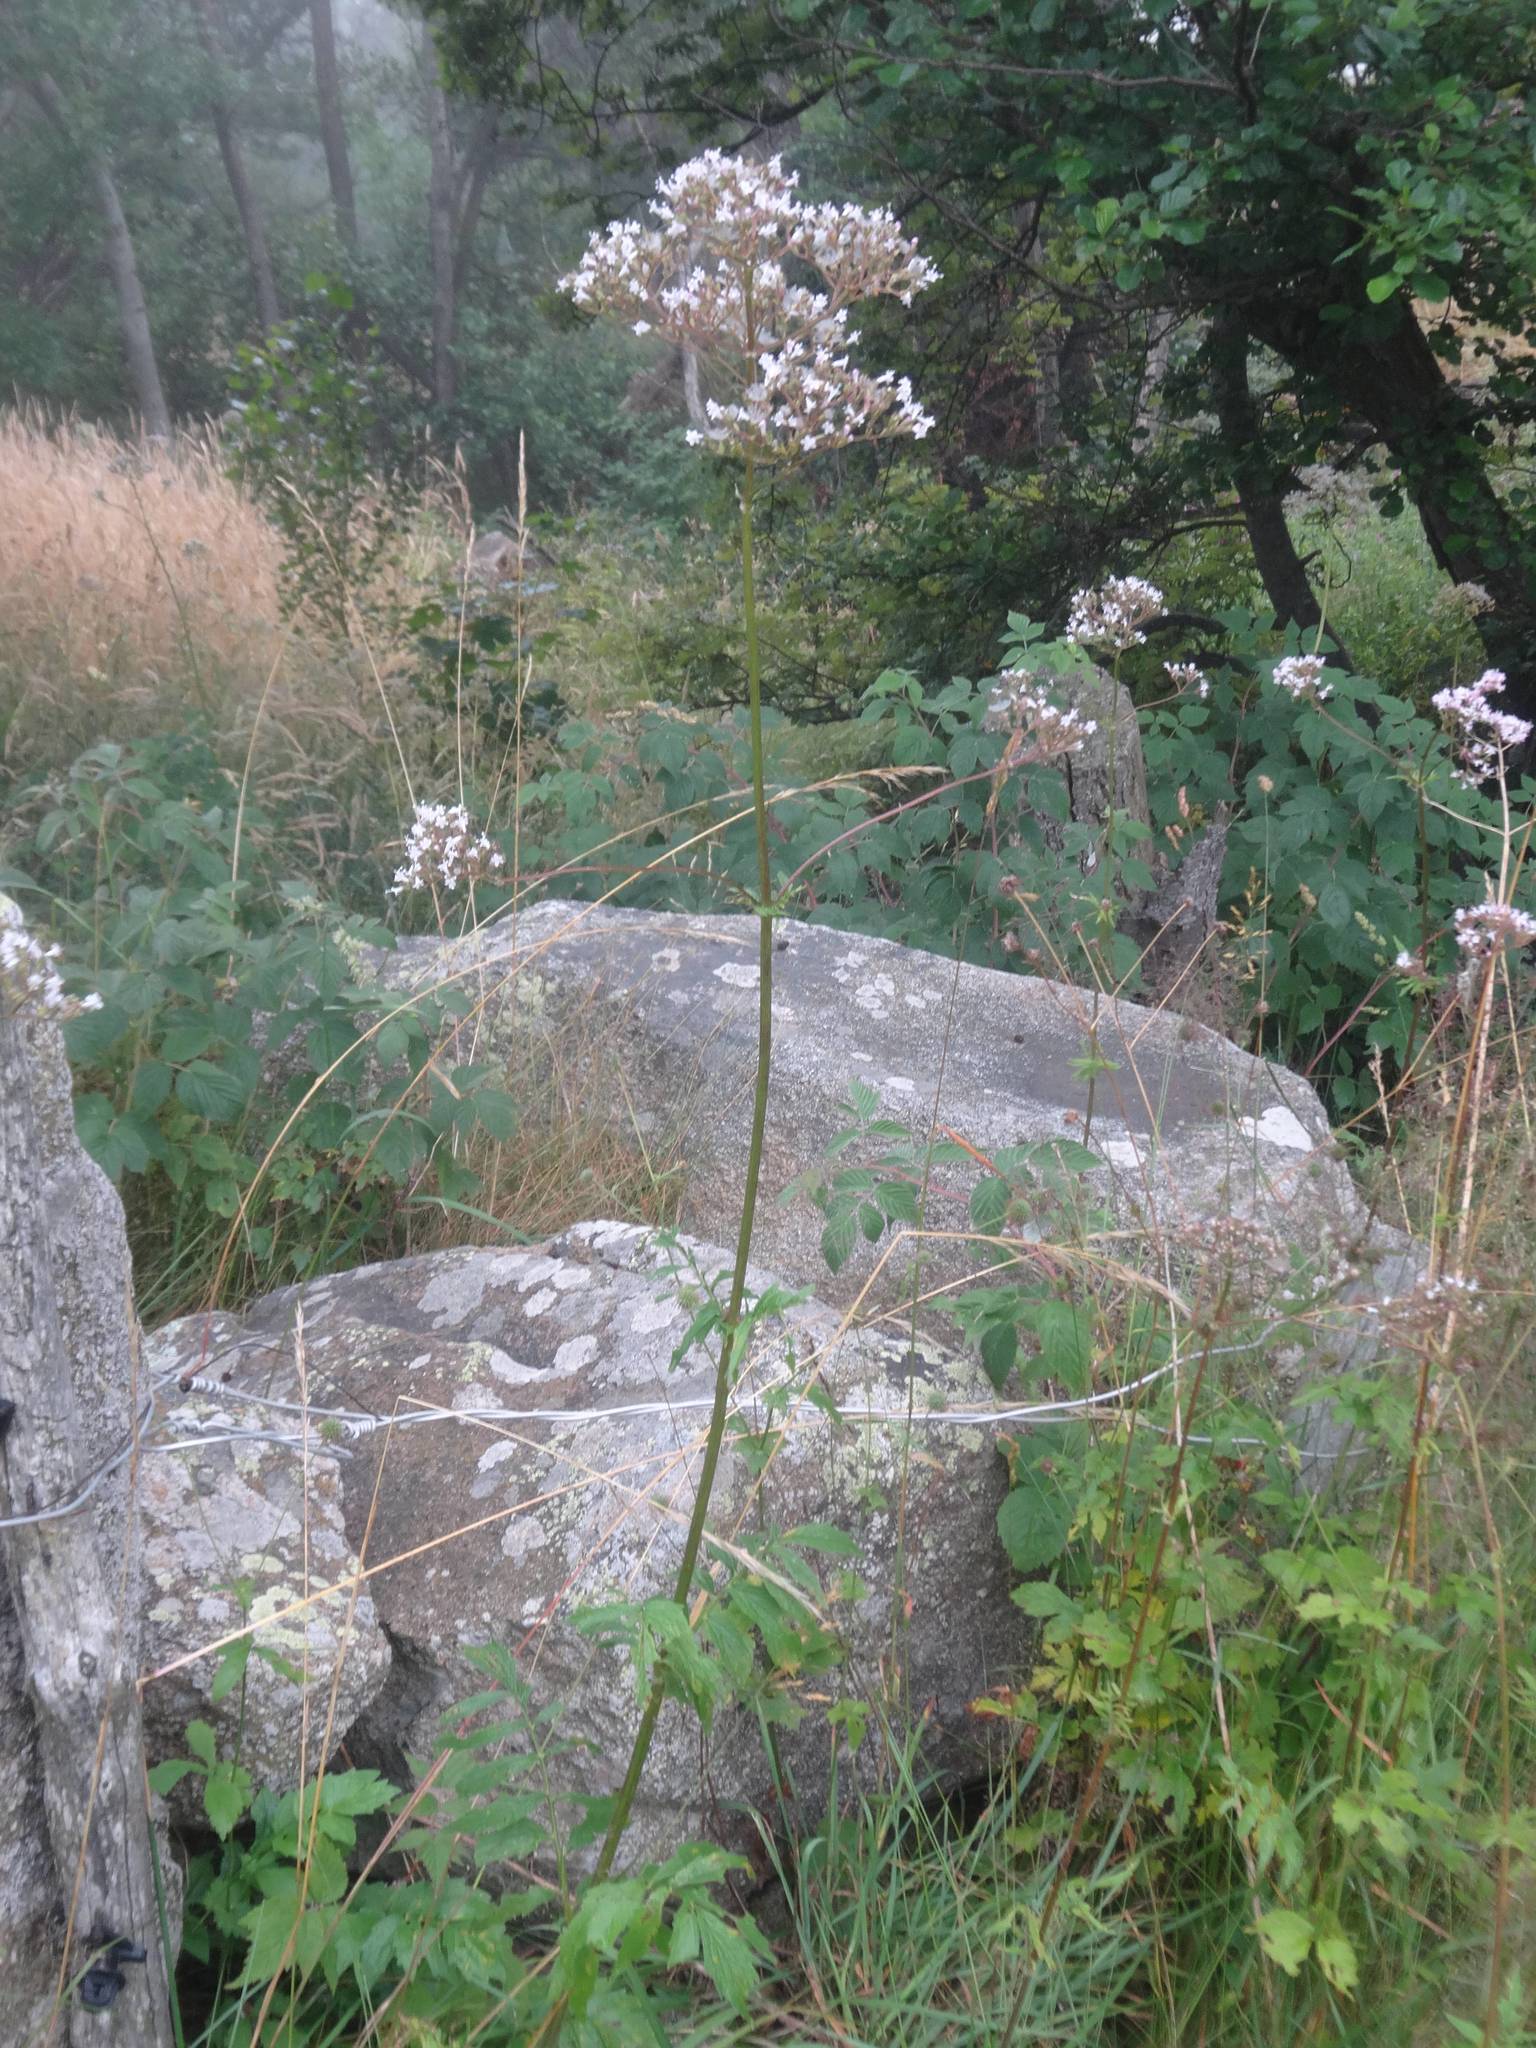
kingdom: Plantae
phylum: Tracheophyta
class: Magnoliopsida
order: Dipsacales
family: Caprifoliaceae
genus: Valeriana
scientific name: Valeriana officinalis
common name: Common valerian
